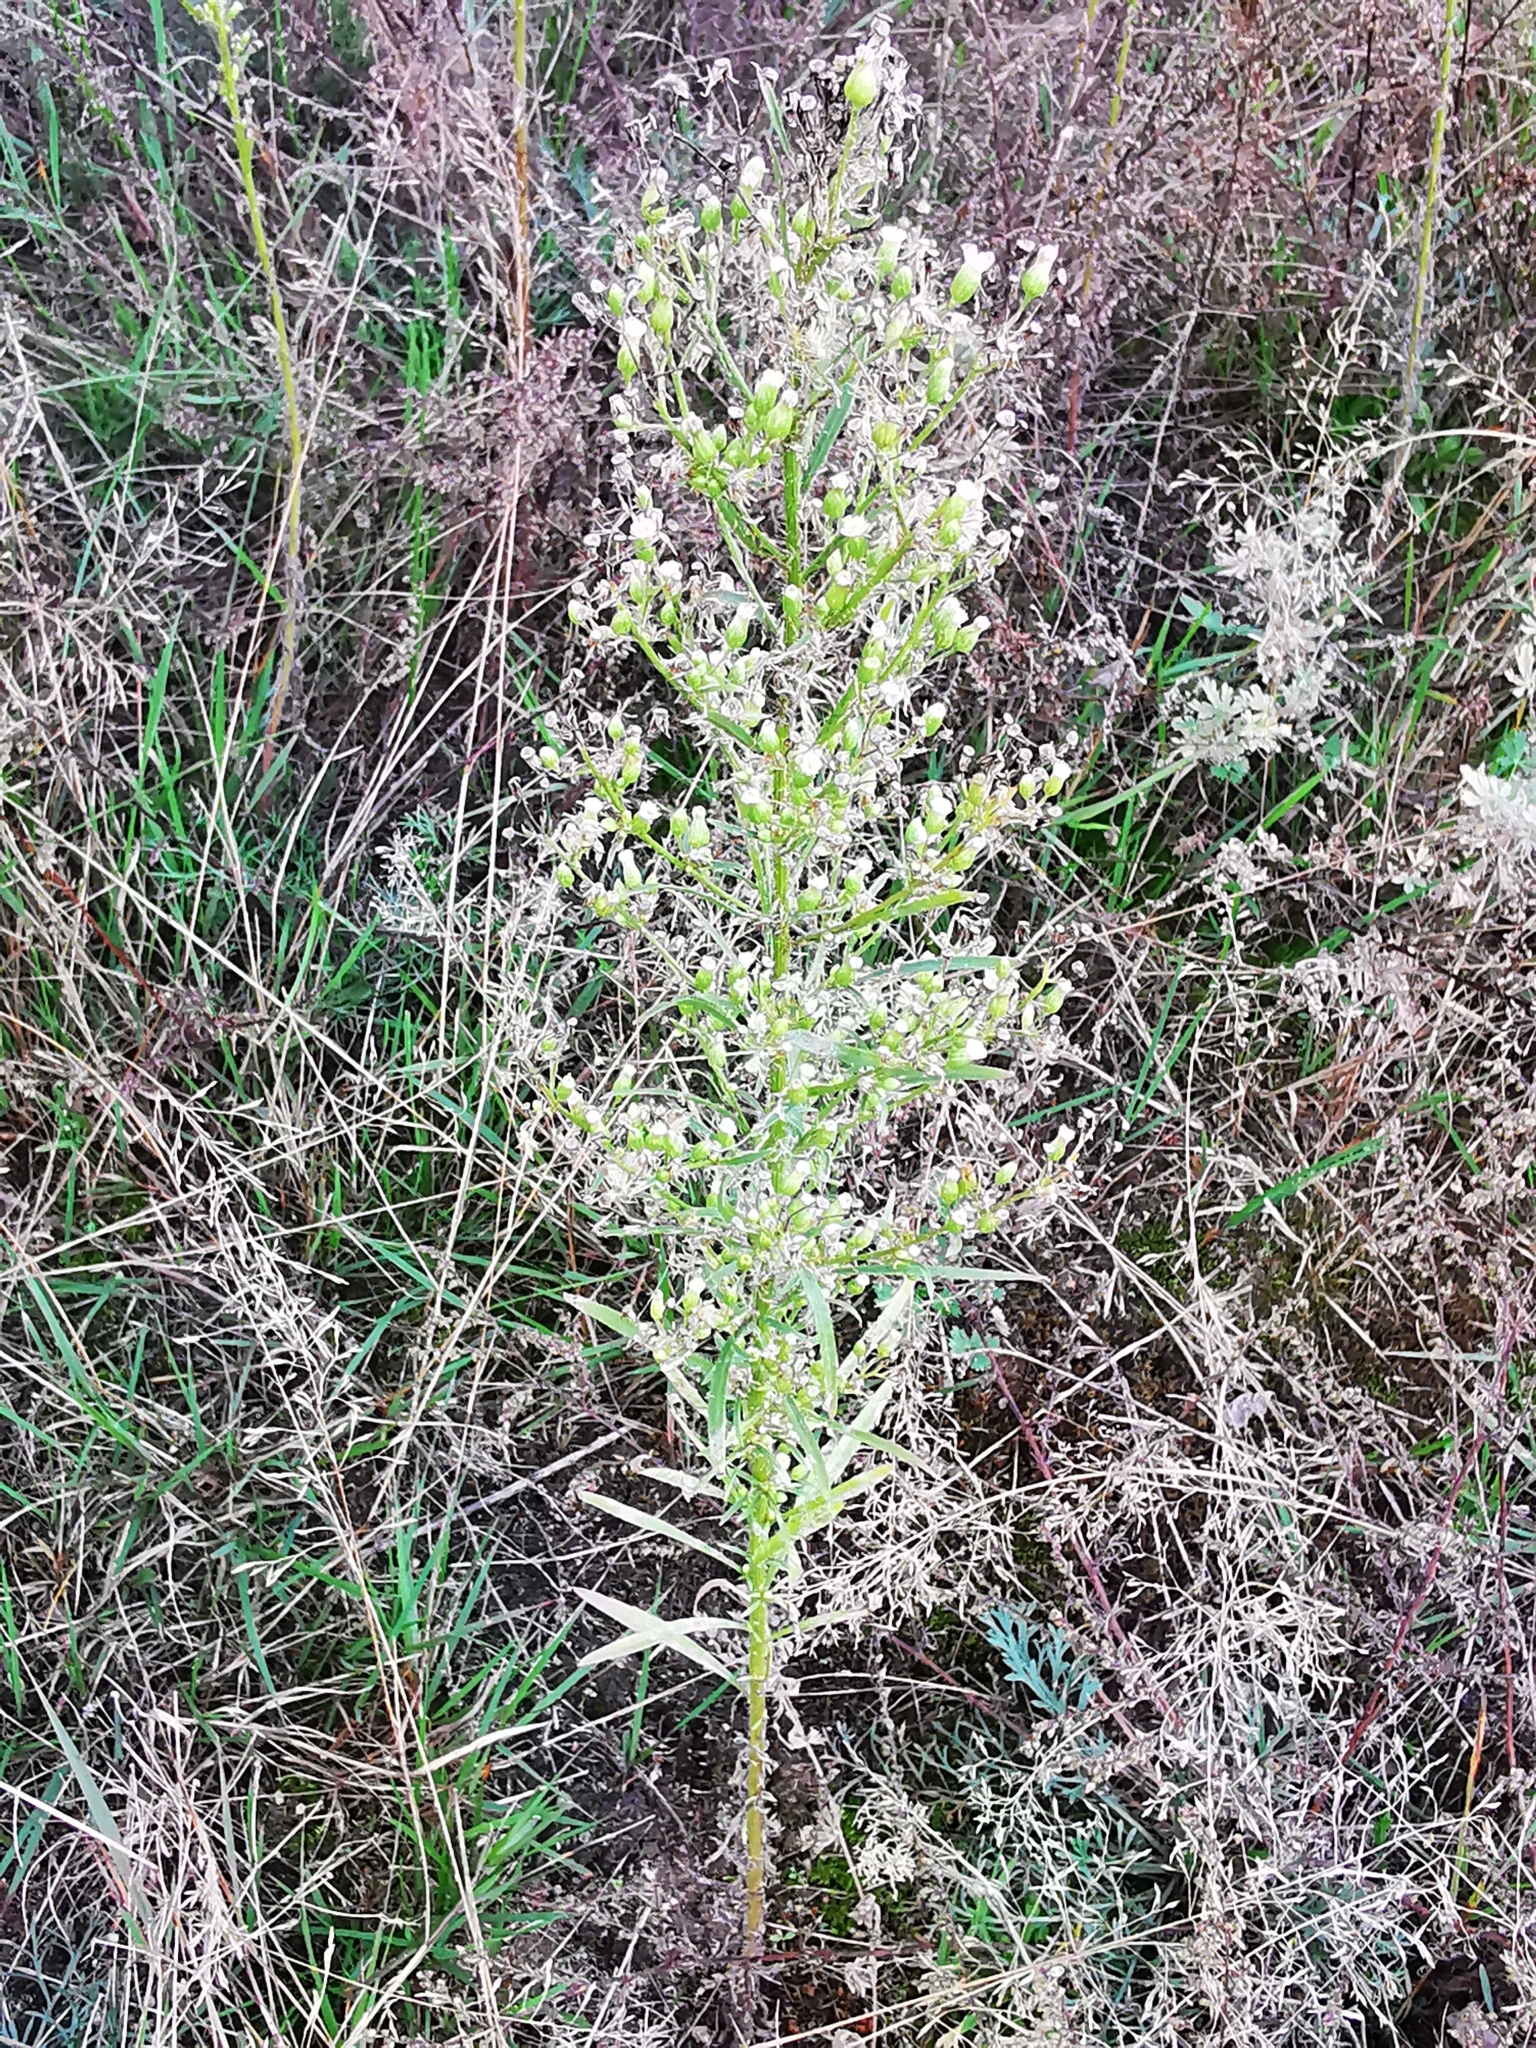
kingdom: Plantae
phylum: Tracheophyta
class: Magnoliopsida
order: Asterales
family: Asteraceae
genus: Erigeron
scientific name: Erigeron canadensis
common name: Canadian fleabane
